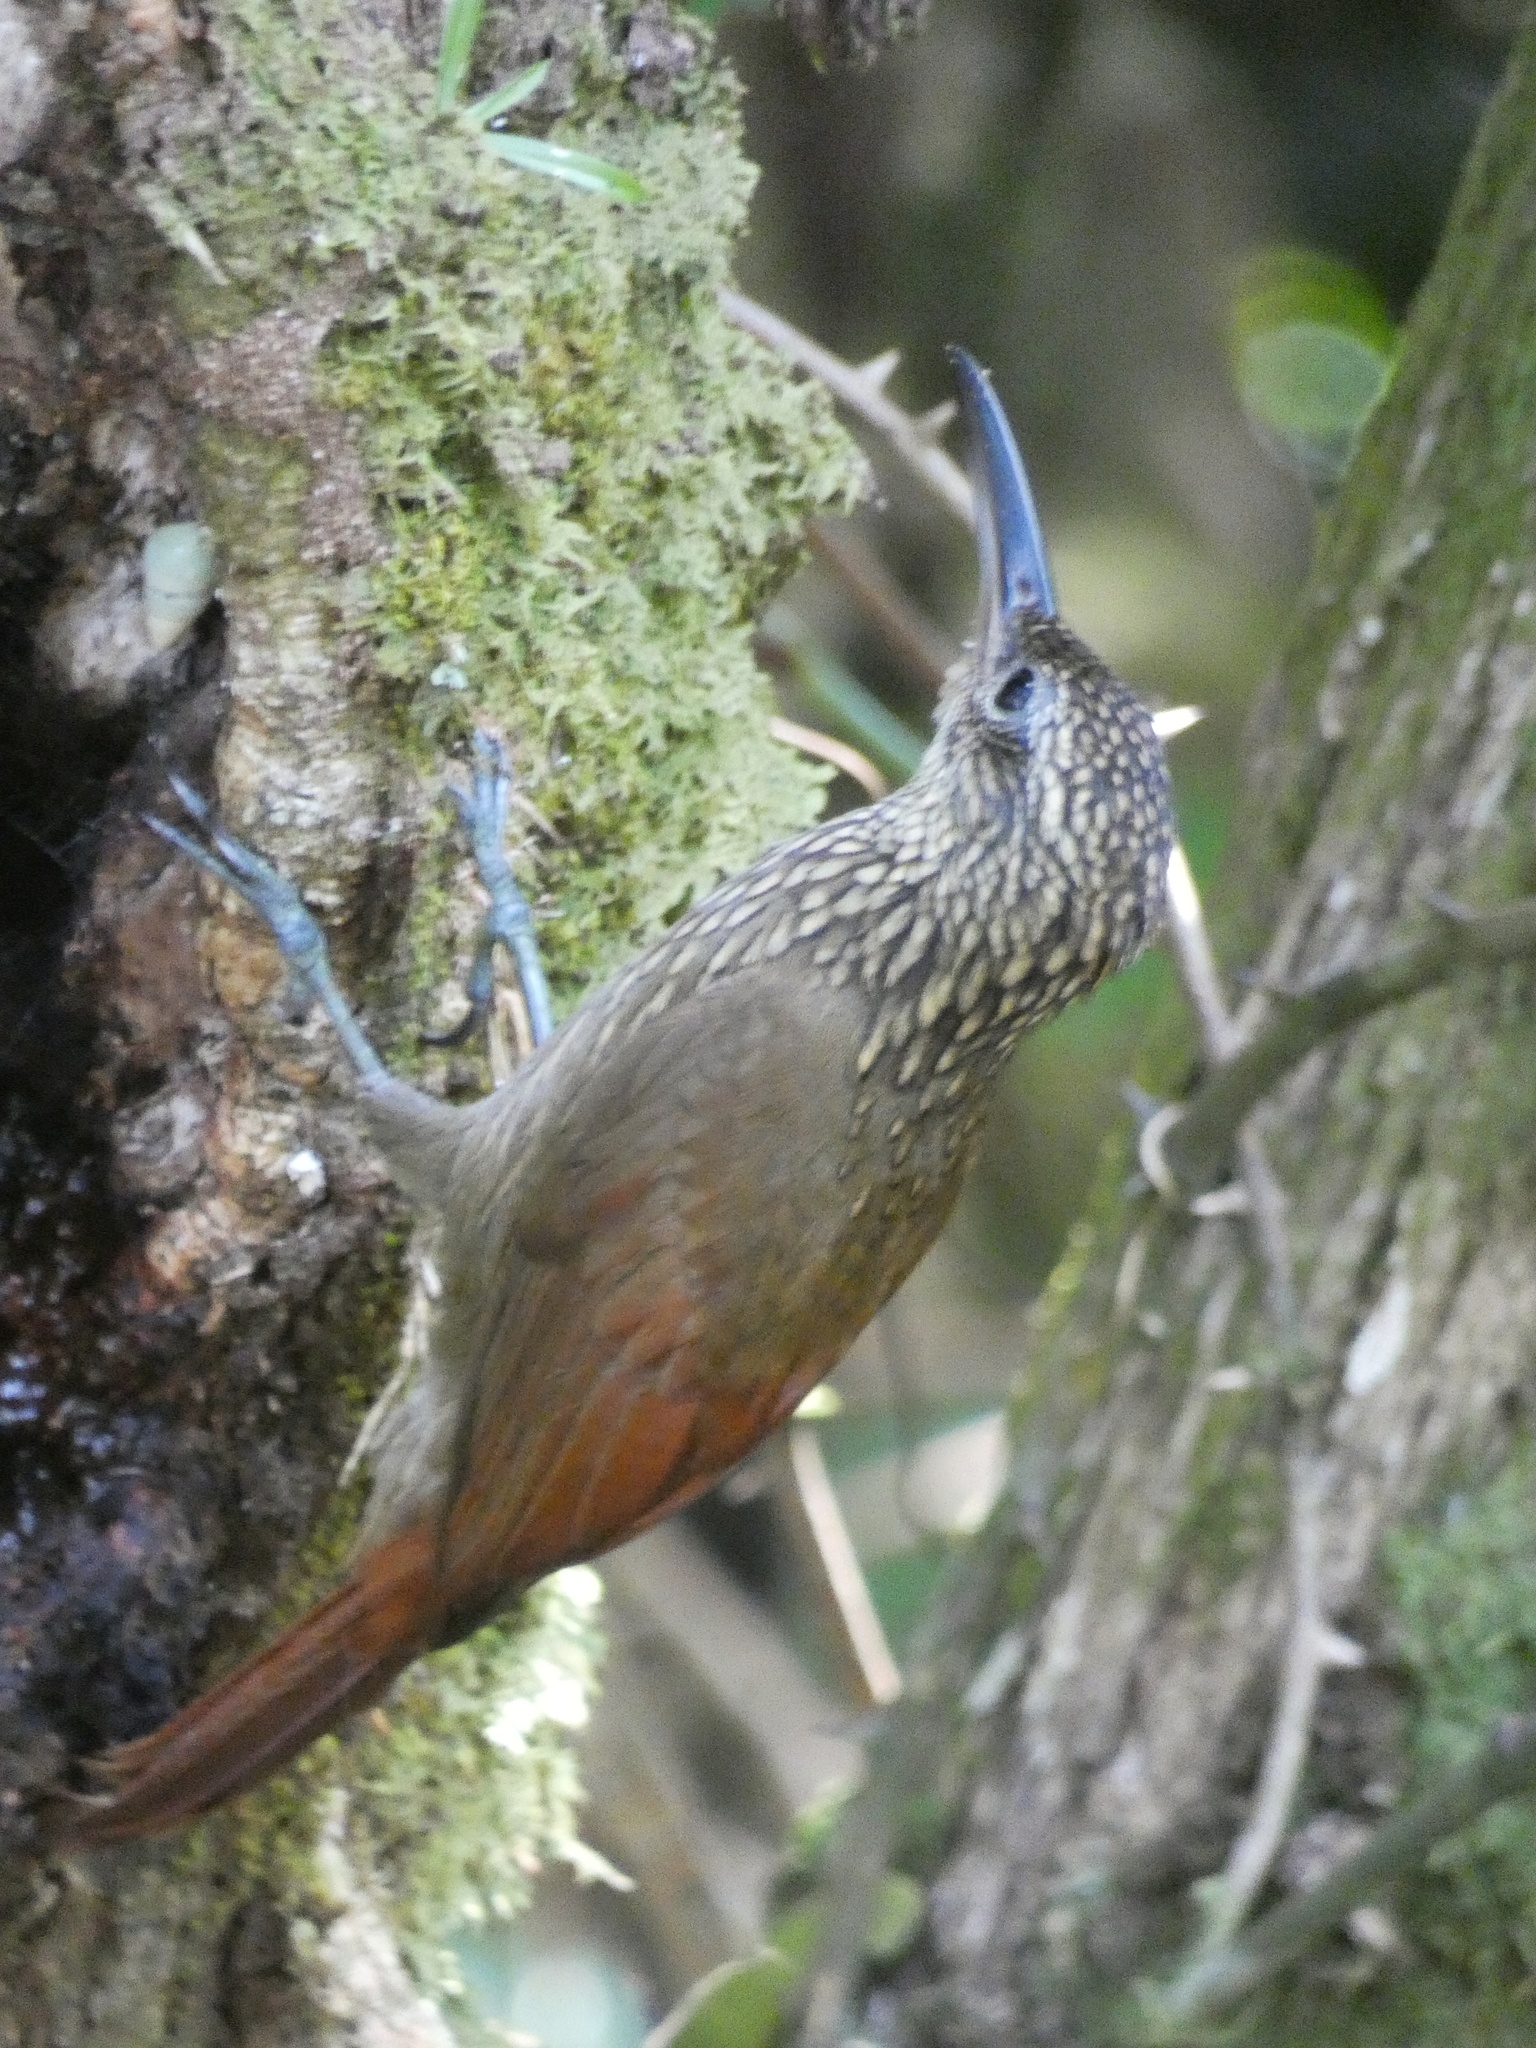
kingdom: Animalia
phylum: Chordata
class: Aves
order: Passeriformes
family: Furnariidae
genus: Xiphorhynchus
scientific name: Xiphorhynchus susurrans
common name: Cocoa woodcreeper
